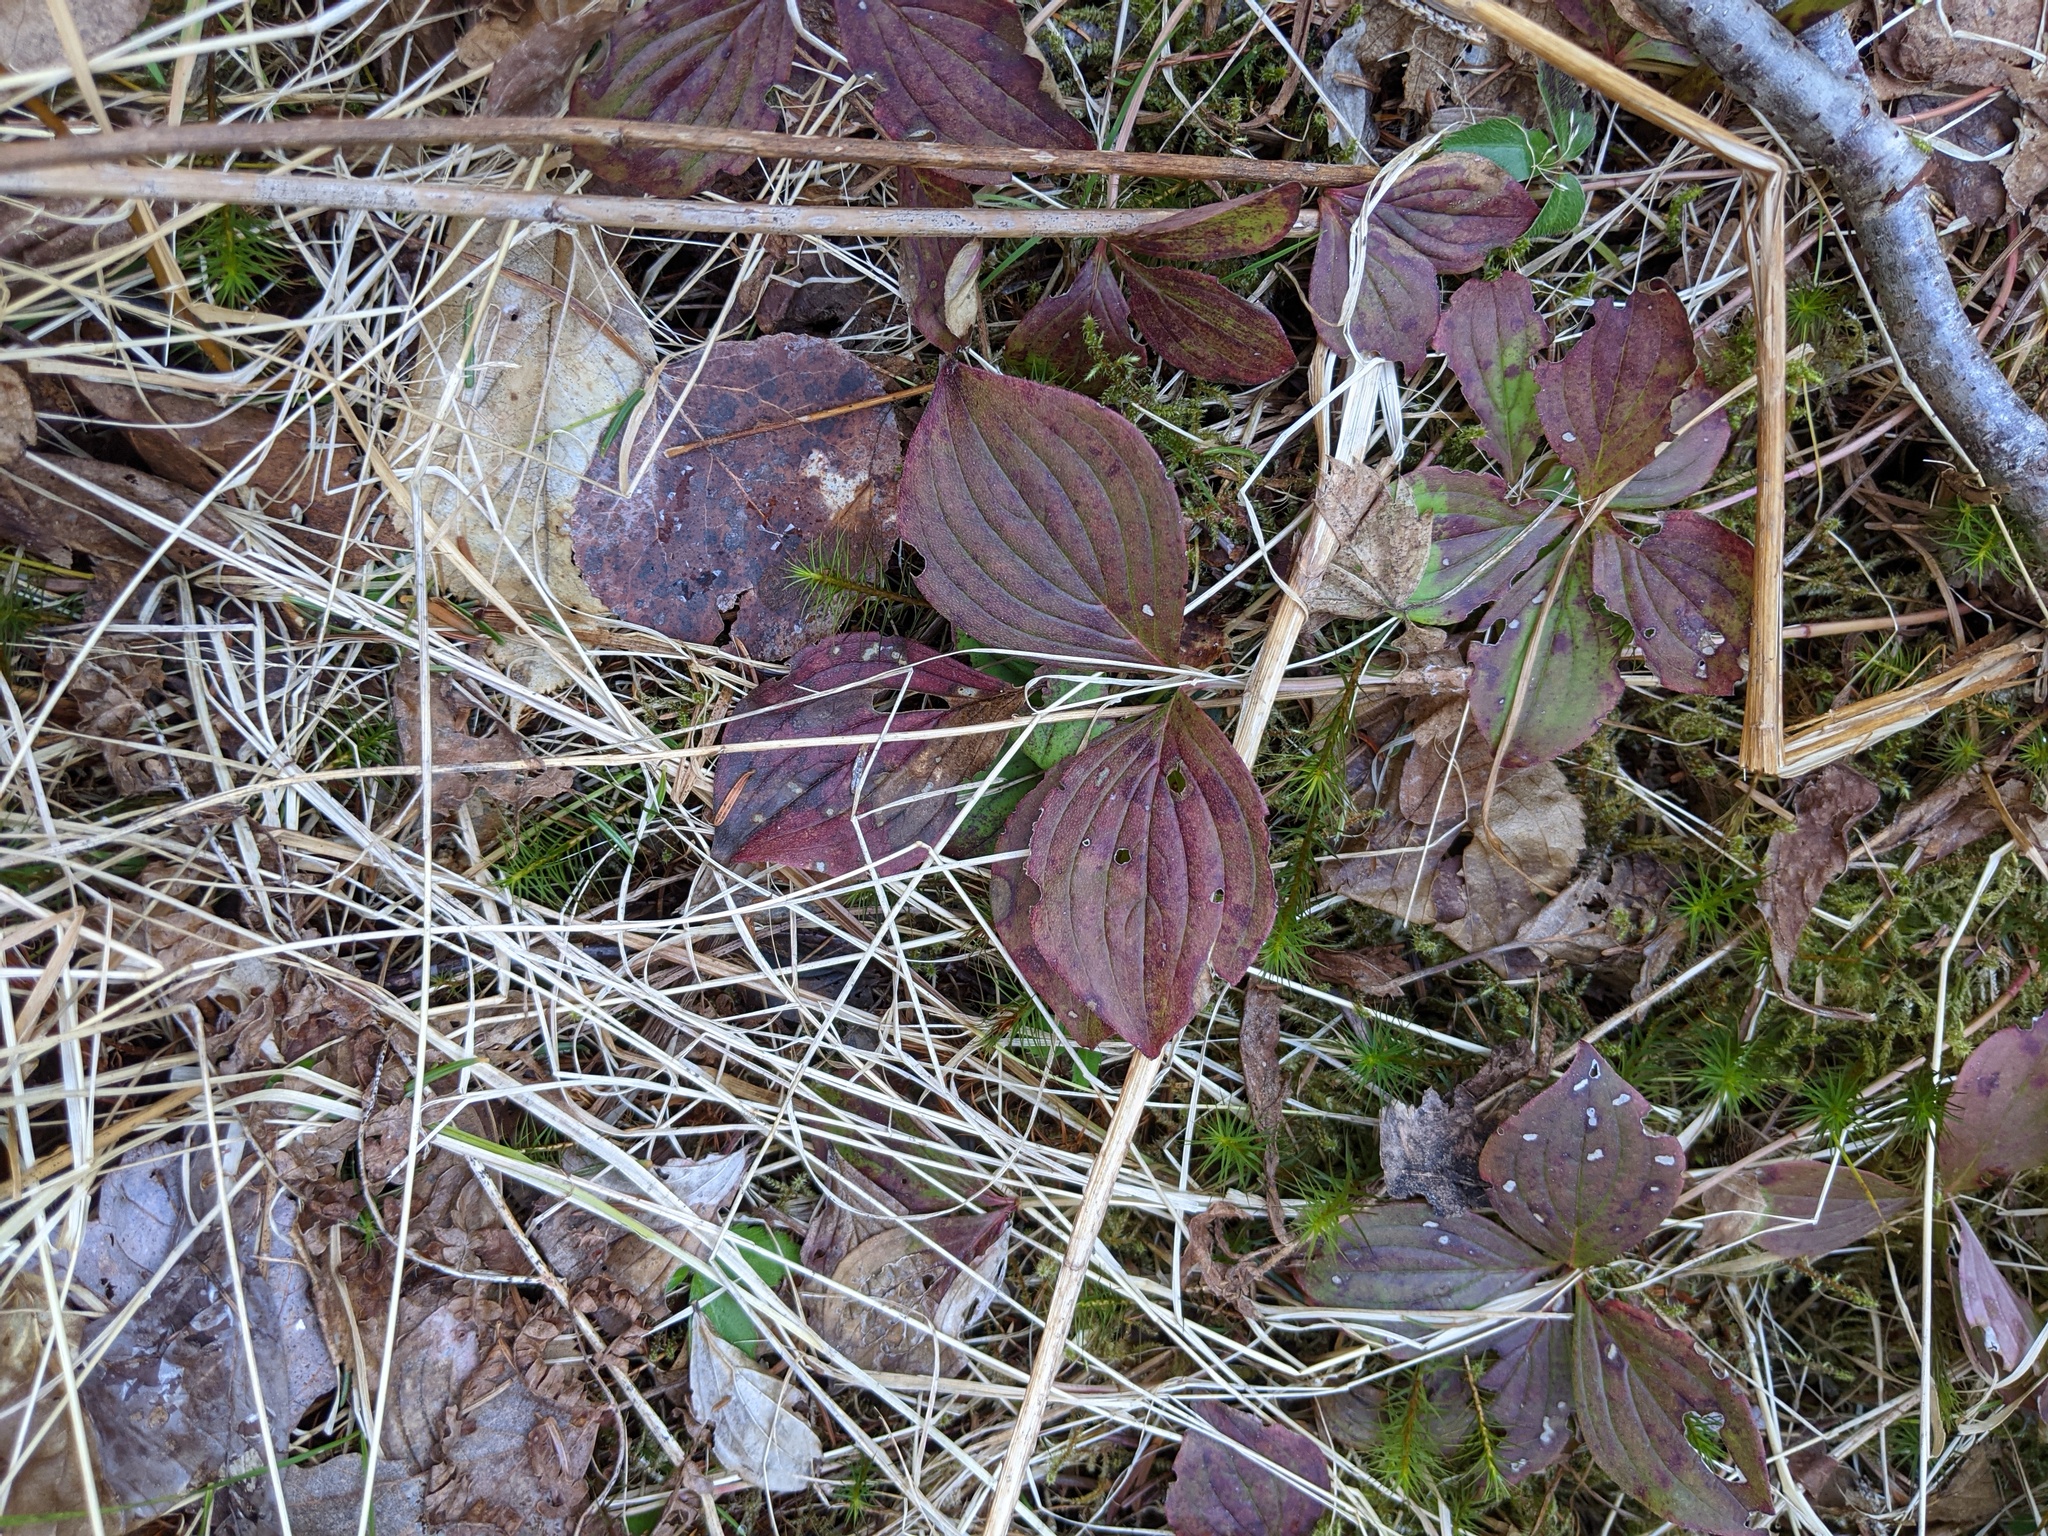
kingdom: Plantae
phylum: Tracheophyta
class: Magnoliopsida
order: Cornales
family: Cornaceae
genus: Cornus
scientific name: Cornus canadensis
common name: Creeping dogwood
